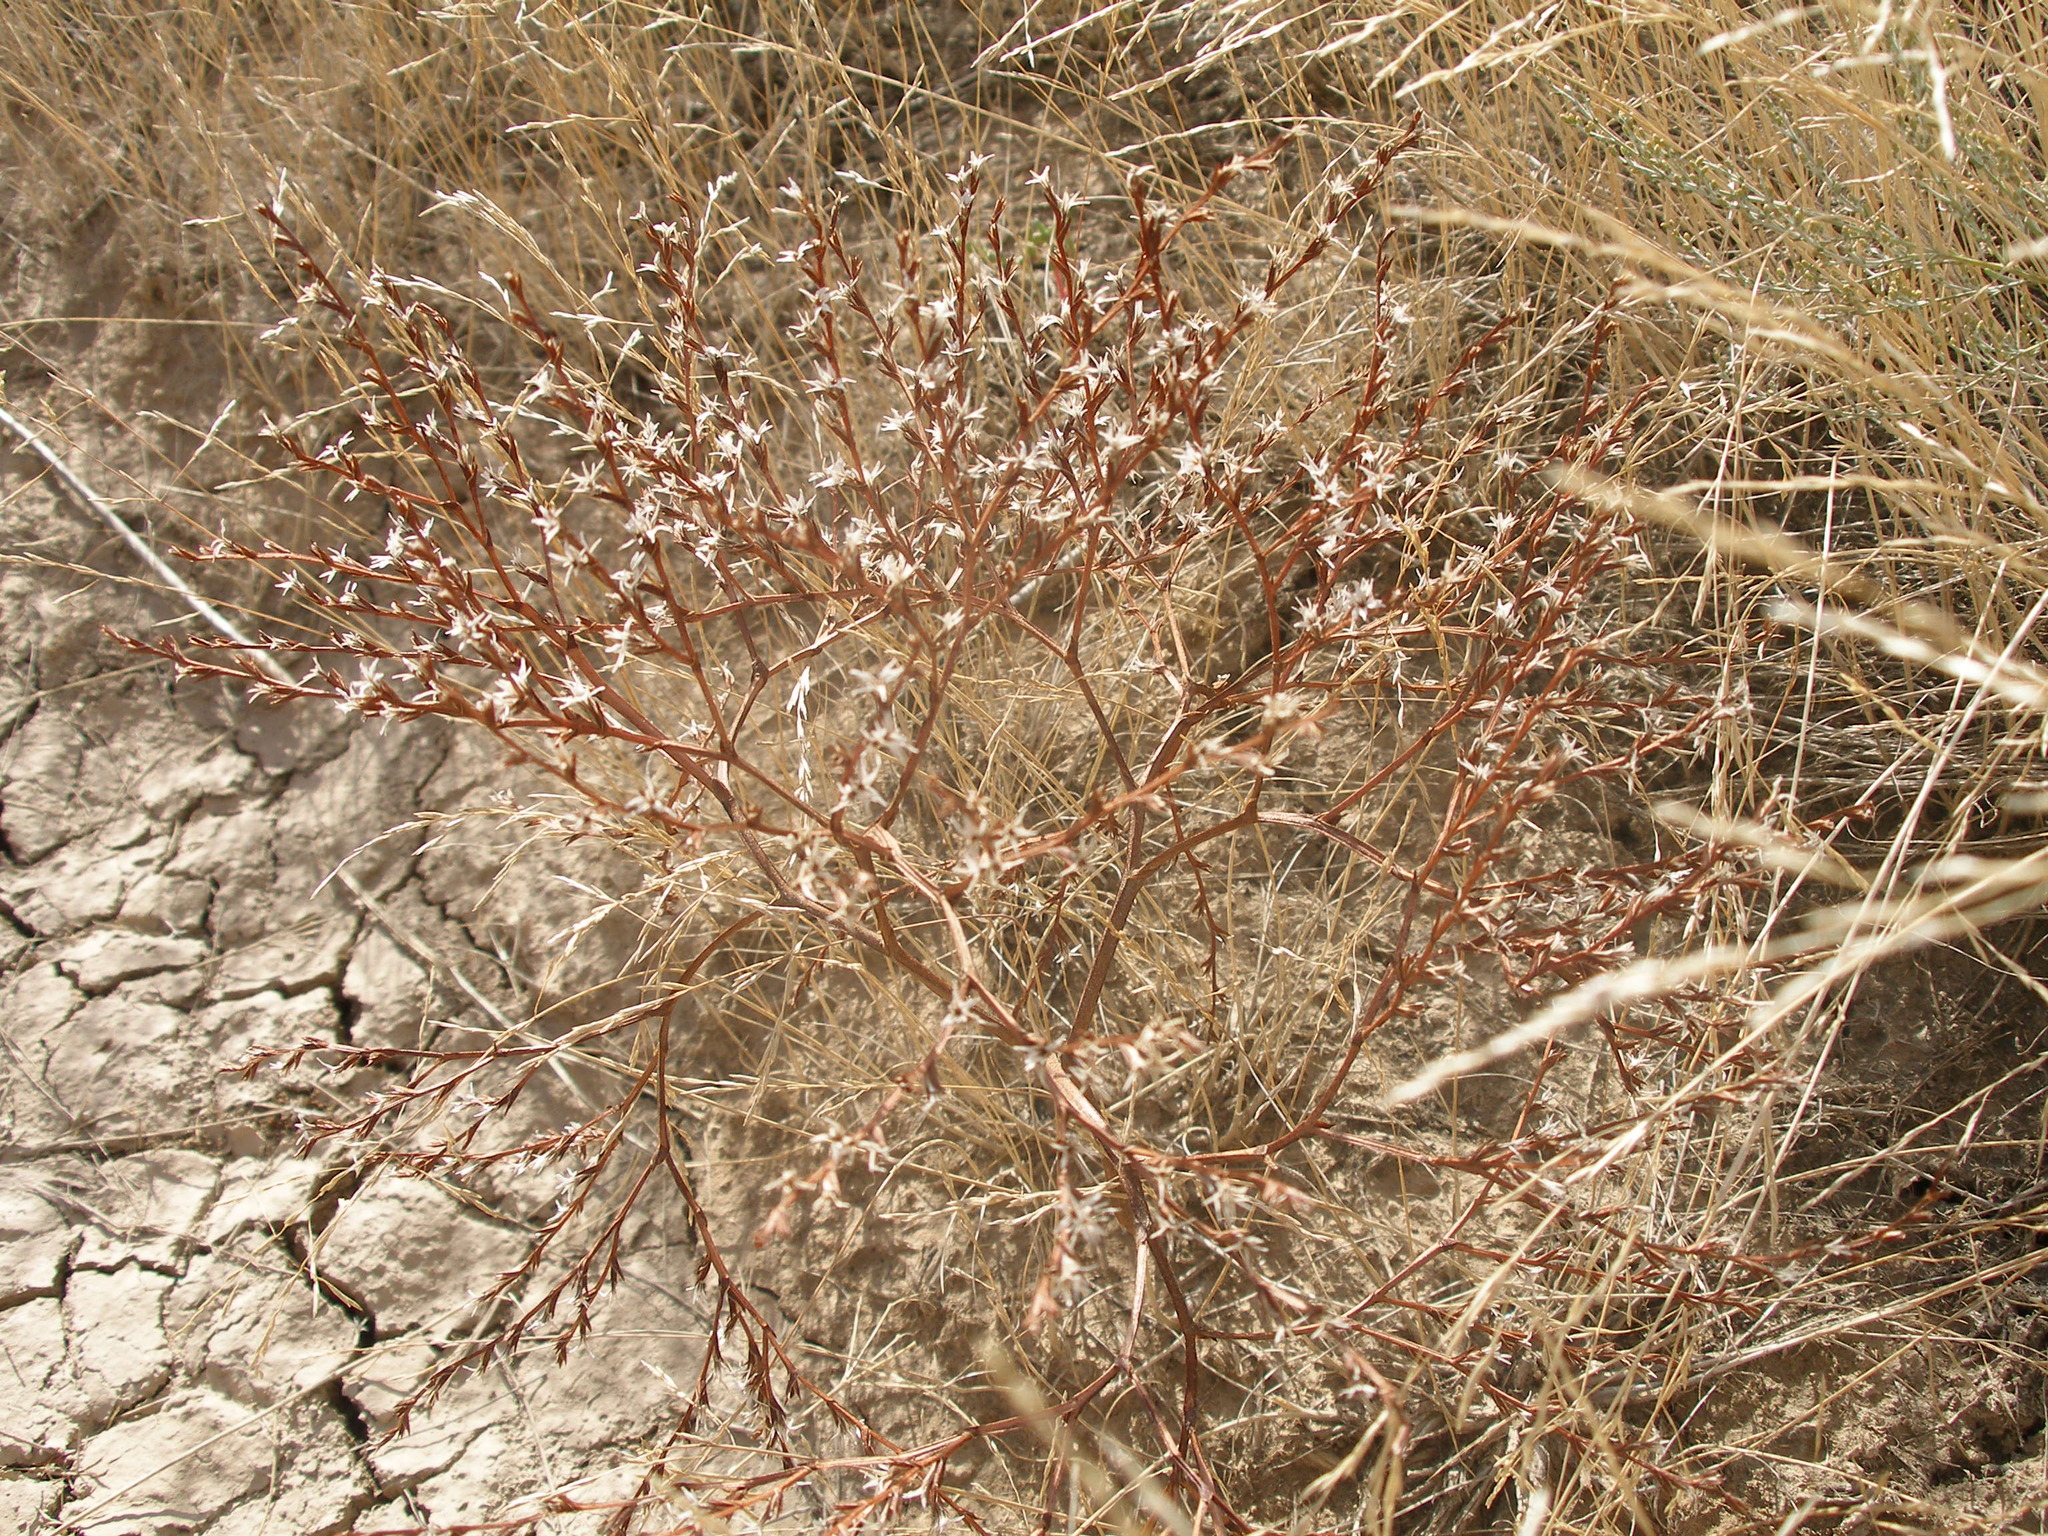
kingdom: Plantae
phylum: Tracheophyta
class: Magnoliopsida
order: Caryophyllales
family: Plumbaginaceae
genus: Goniolimon
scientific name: Goniolimon tataricum
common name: Statice
